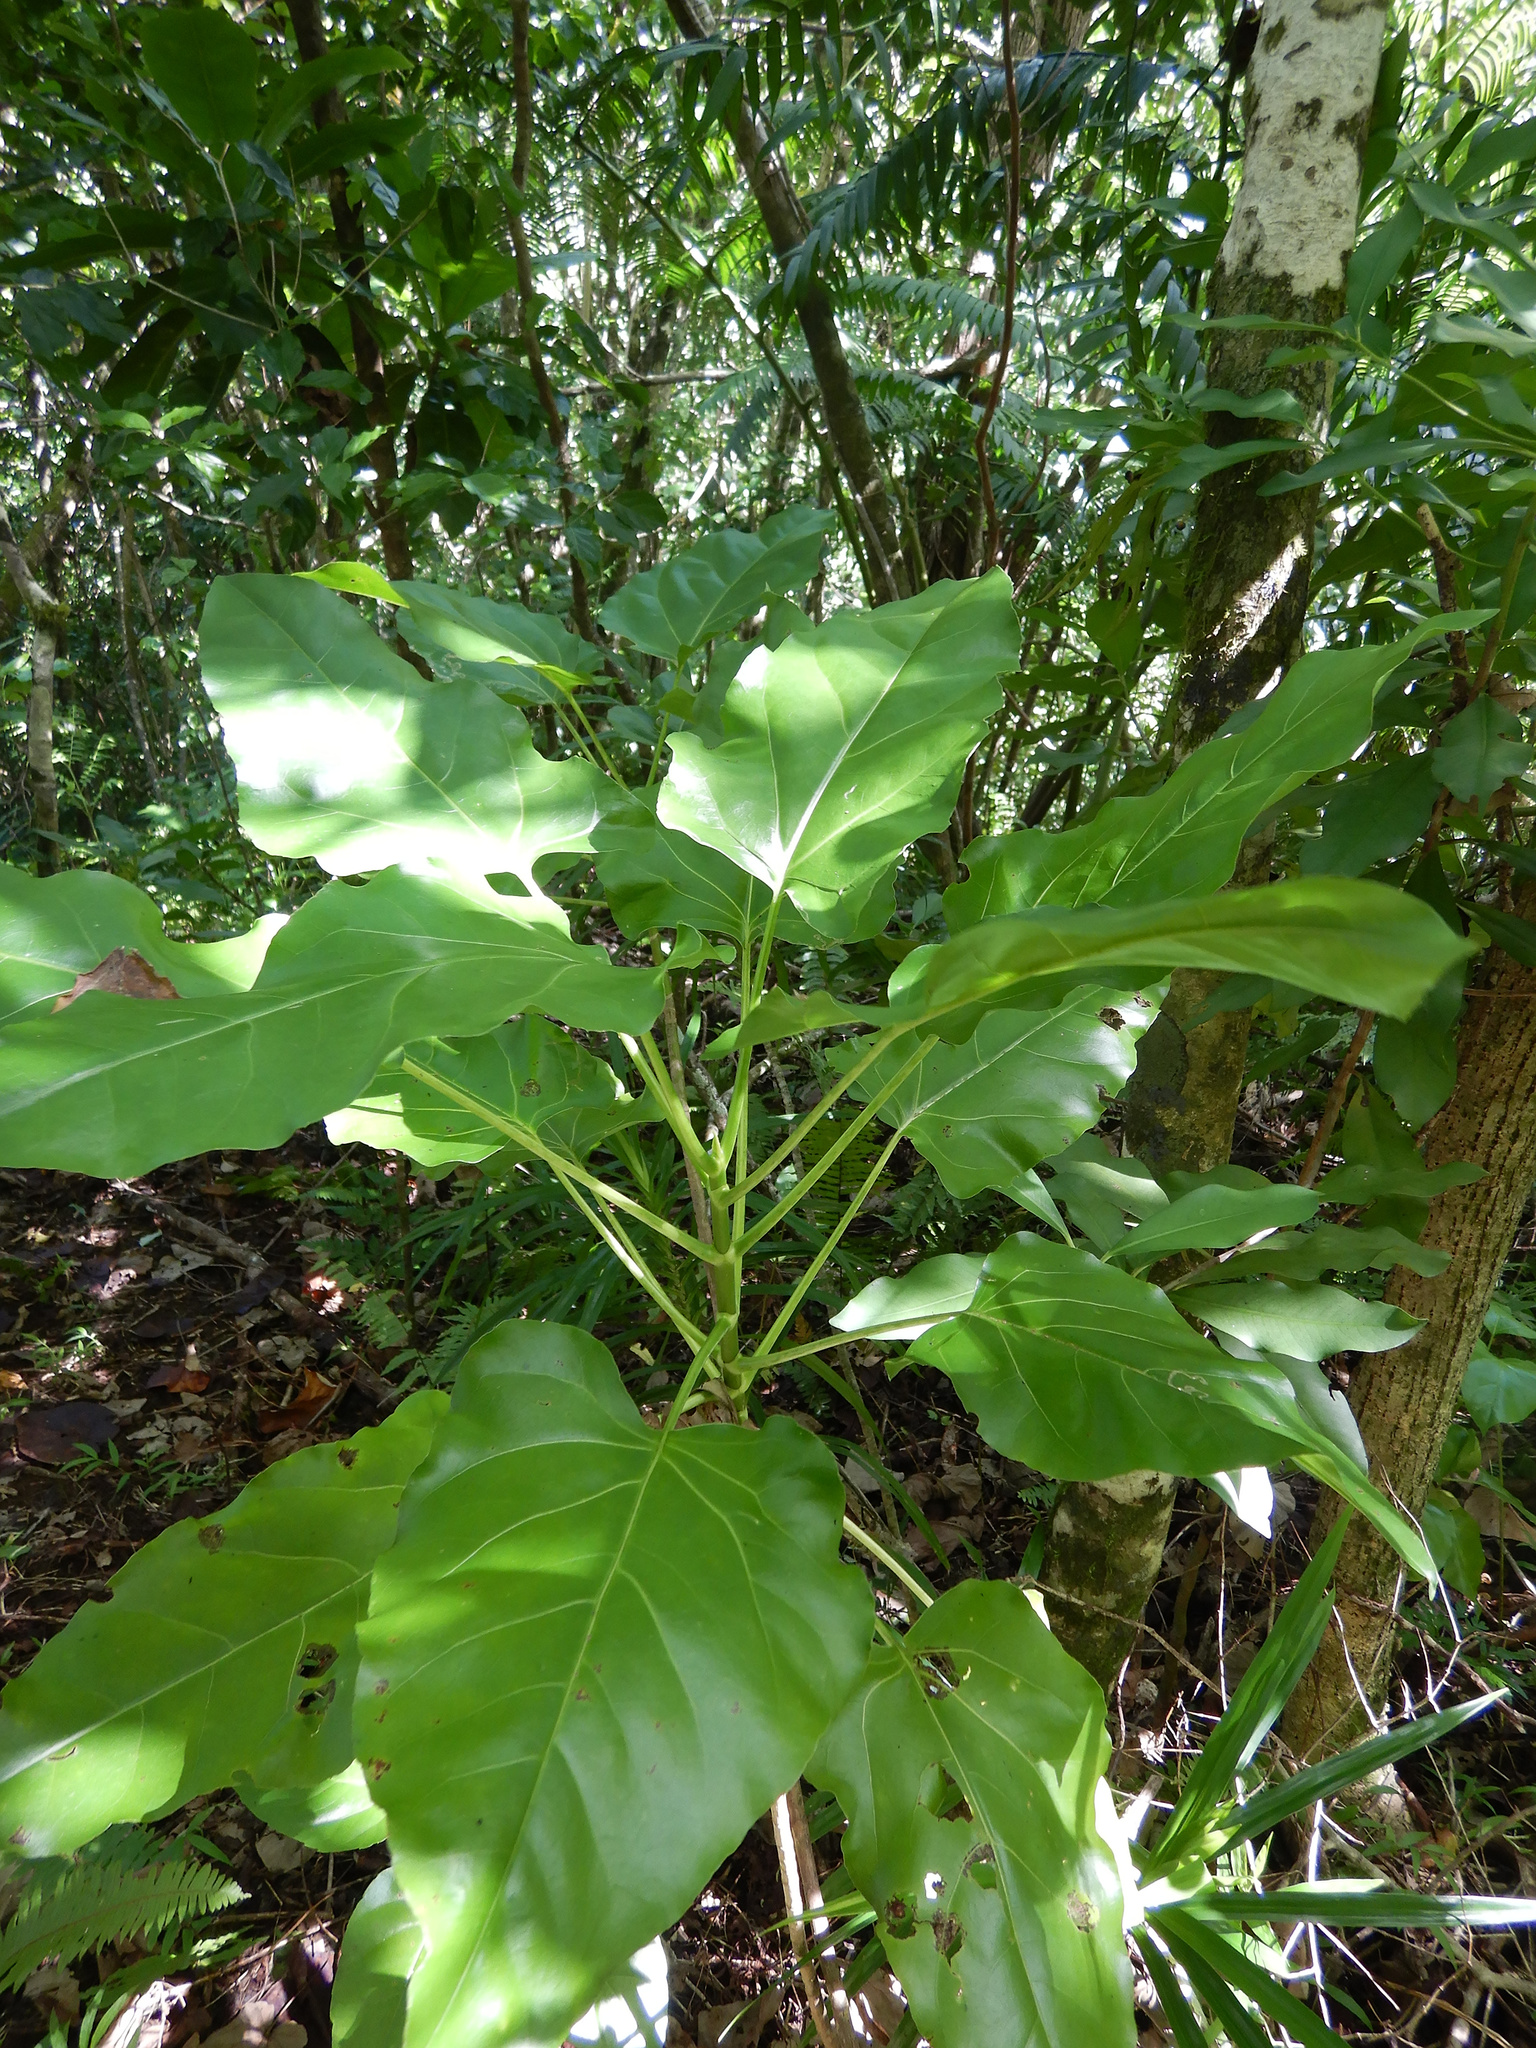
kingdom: Plantae
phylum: Tracheophyta
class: Magnoliopsida
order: Asterales
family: Asteraceae
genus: Fitchia
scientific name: Fitchia speciosa
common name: Burr daisytree
